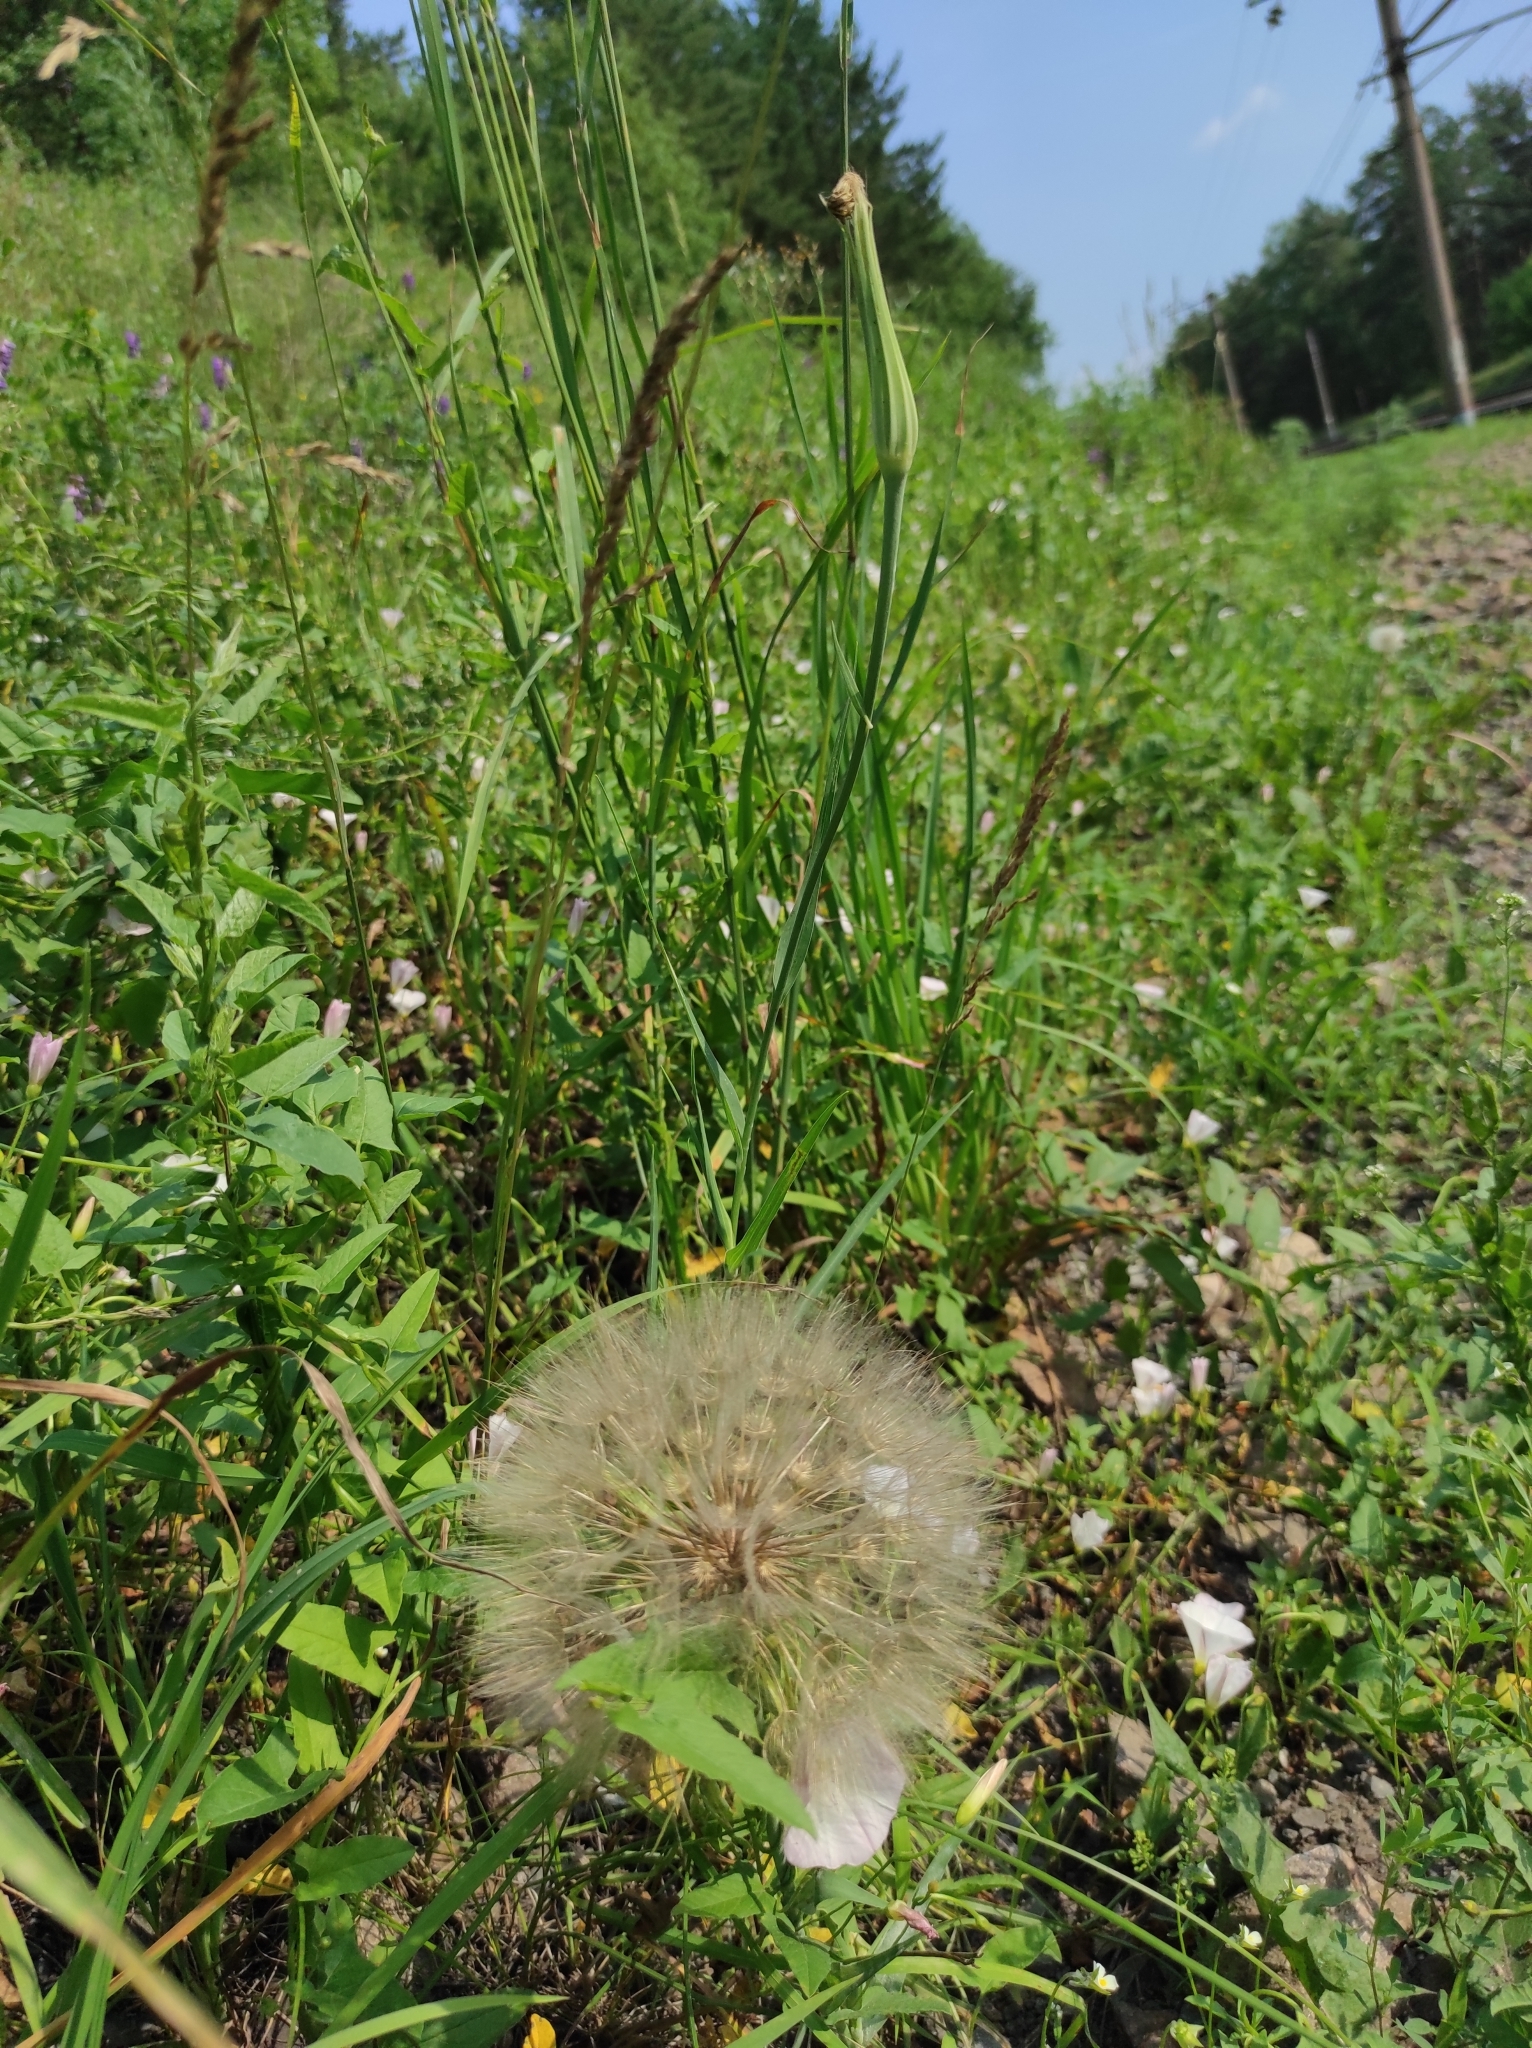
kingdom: Plantae
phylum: Tracheophyta
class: Magnoliopsida
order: Asterales
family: Asteraceae
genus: Tragopogon
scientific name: Tragopogon dubius
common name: Yellow salsify
